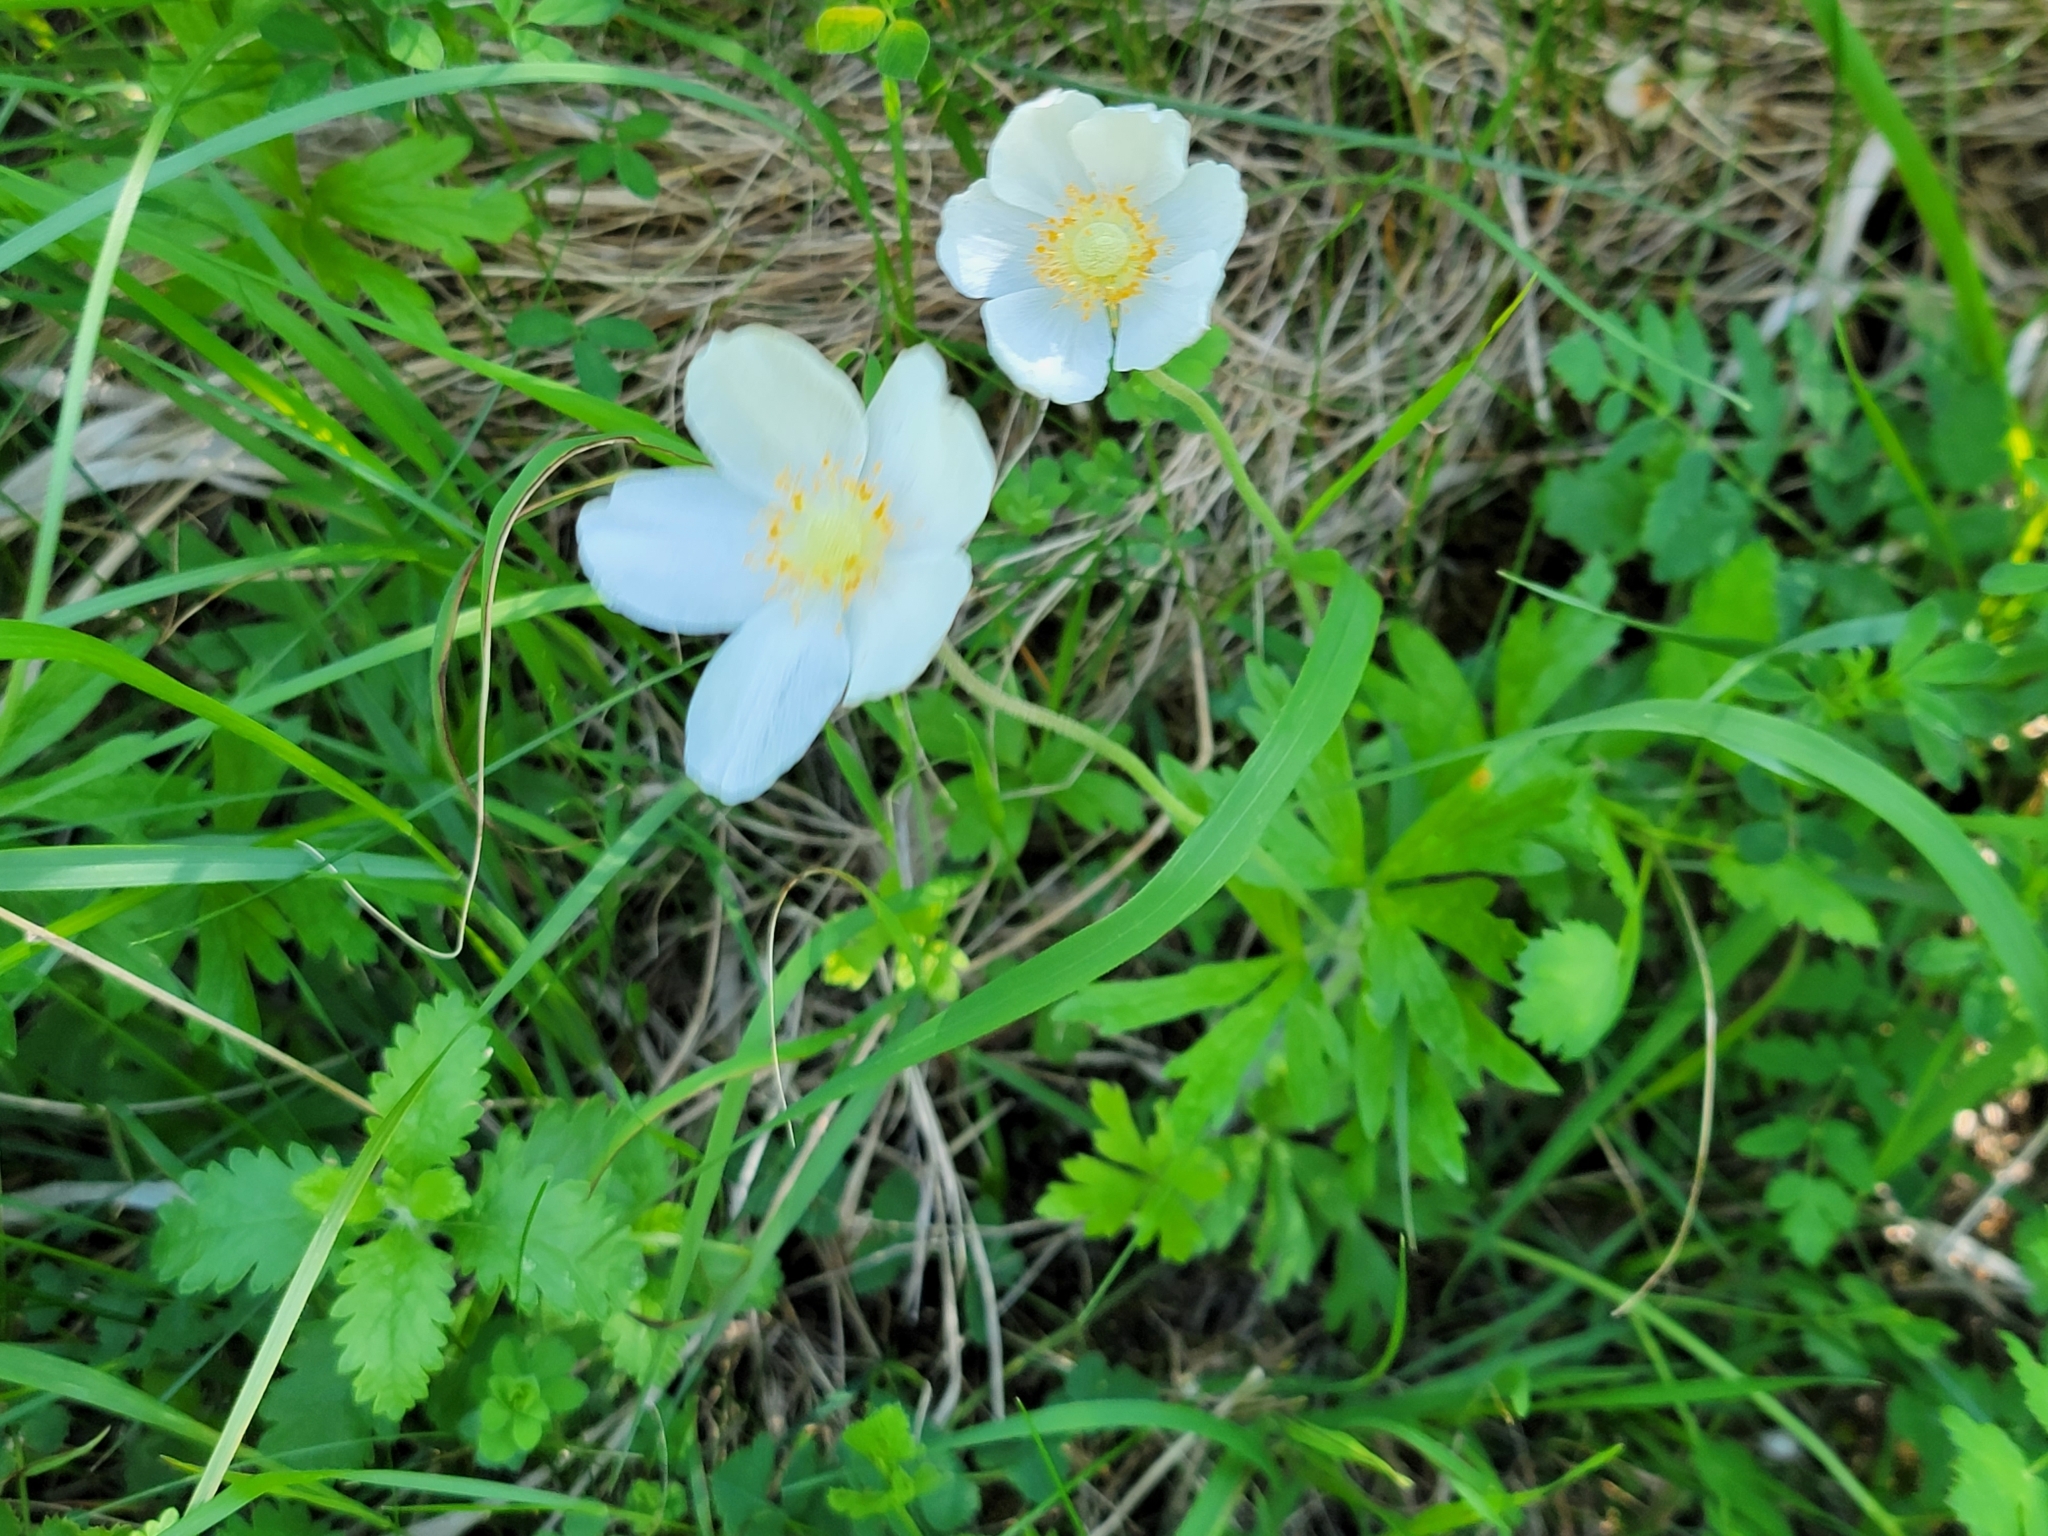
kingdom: Plantae
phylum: Tracheophyta
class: Magnoliopsida
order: Ranunculales
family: Ranunculaceae
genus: Anemone
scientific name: Anemone sylvestris
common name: Snowdrop anemone
